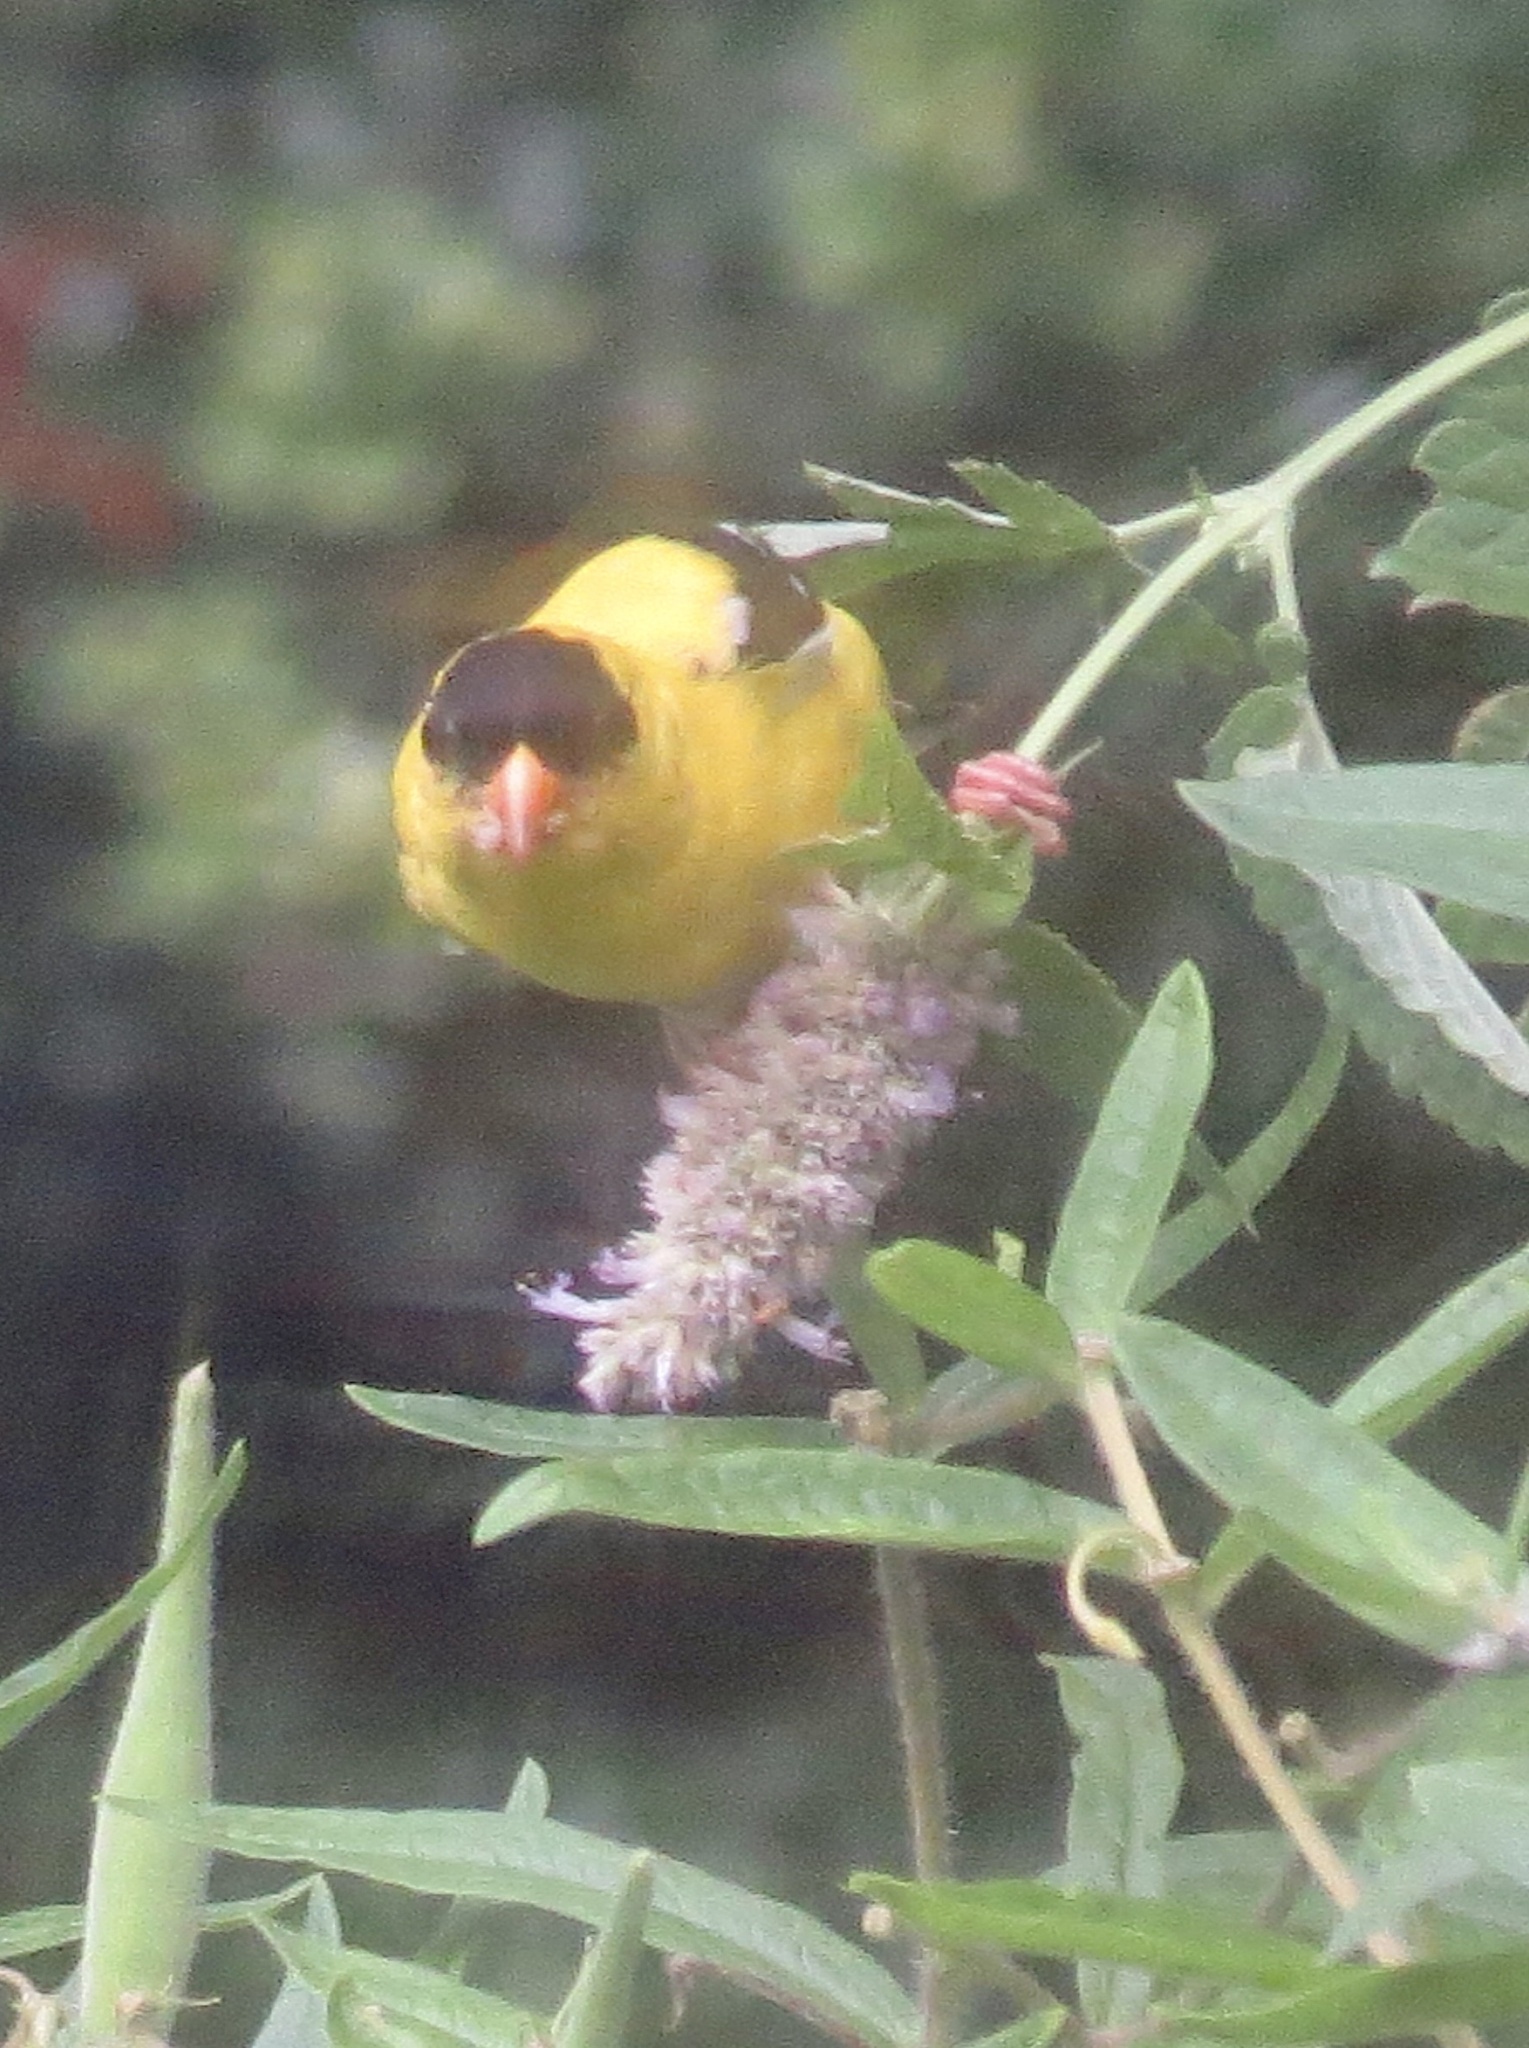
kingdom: Animalia
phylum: Chordata
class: Aves
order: Passeriformes
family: Fringillidae
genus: Spinus
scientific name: Spinus tristis
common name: American goldfinch
